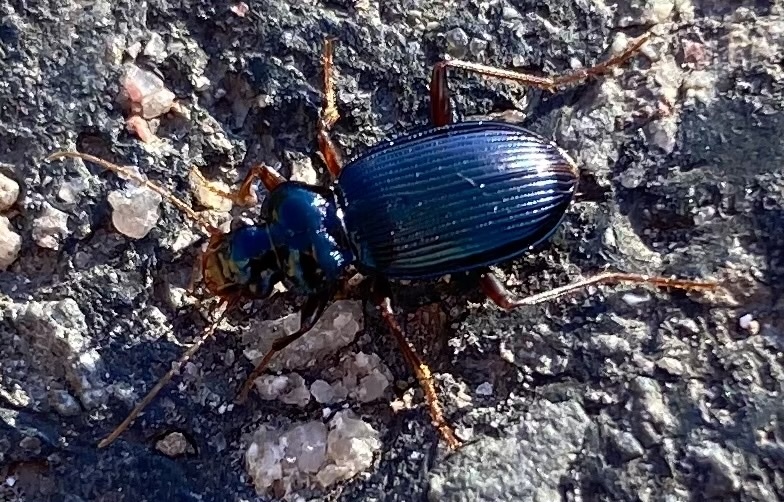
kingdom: Animalia
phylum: Arthropoda
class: Insecta
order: Coleoptera
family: Carabidae
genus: Leistus
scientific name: Leistus spinibarbis
